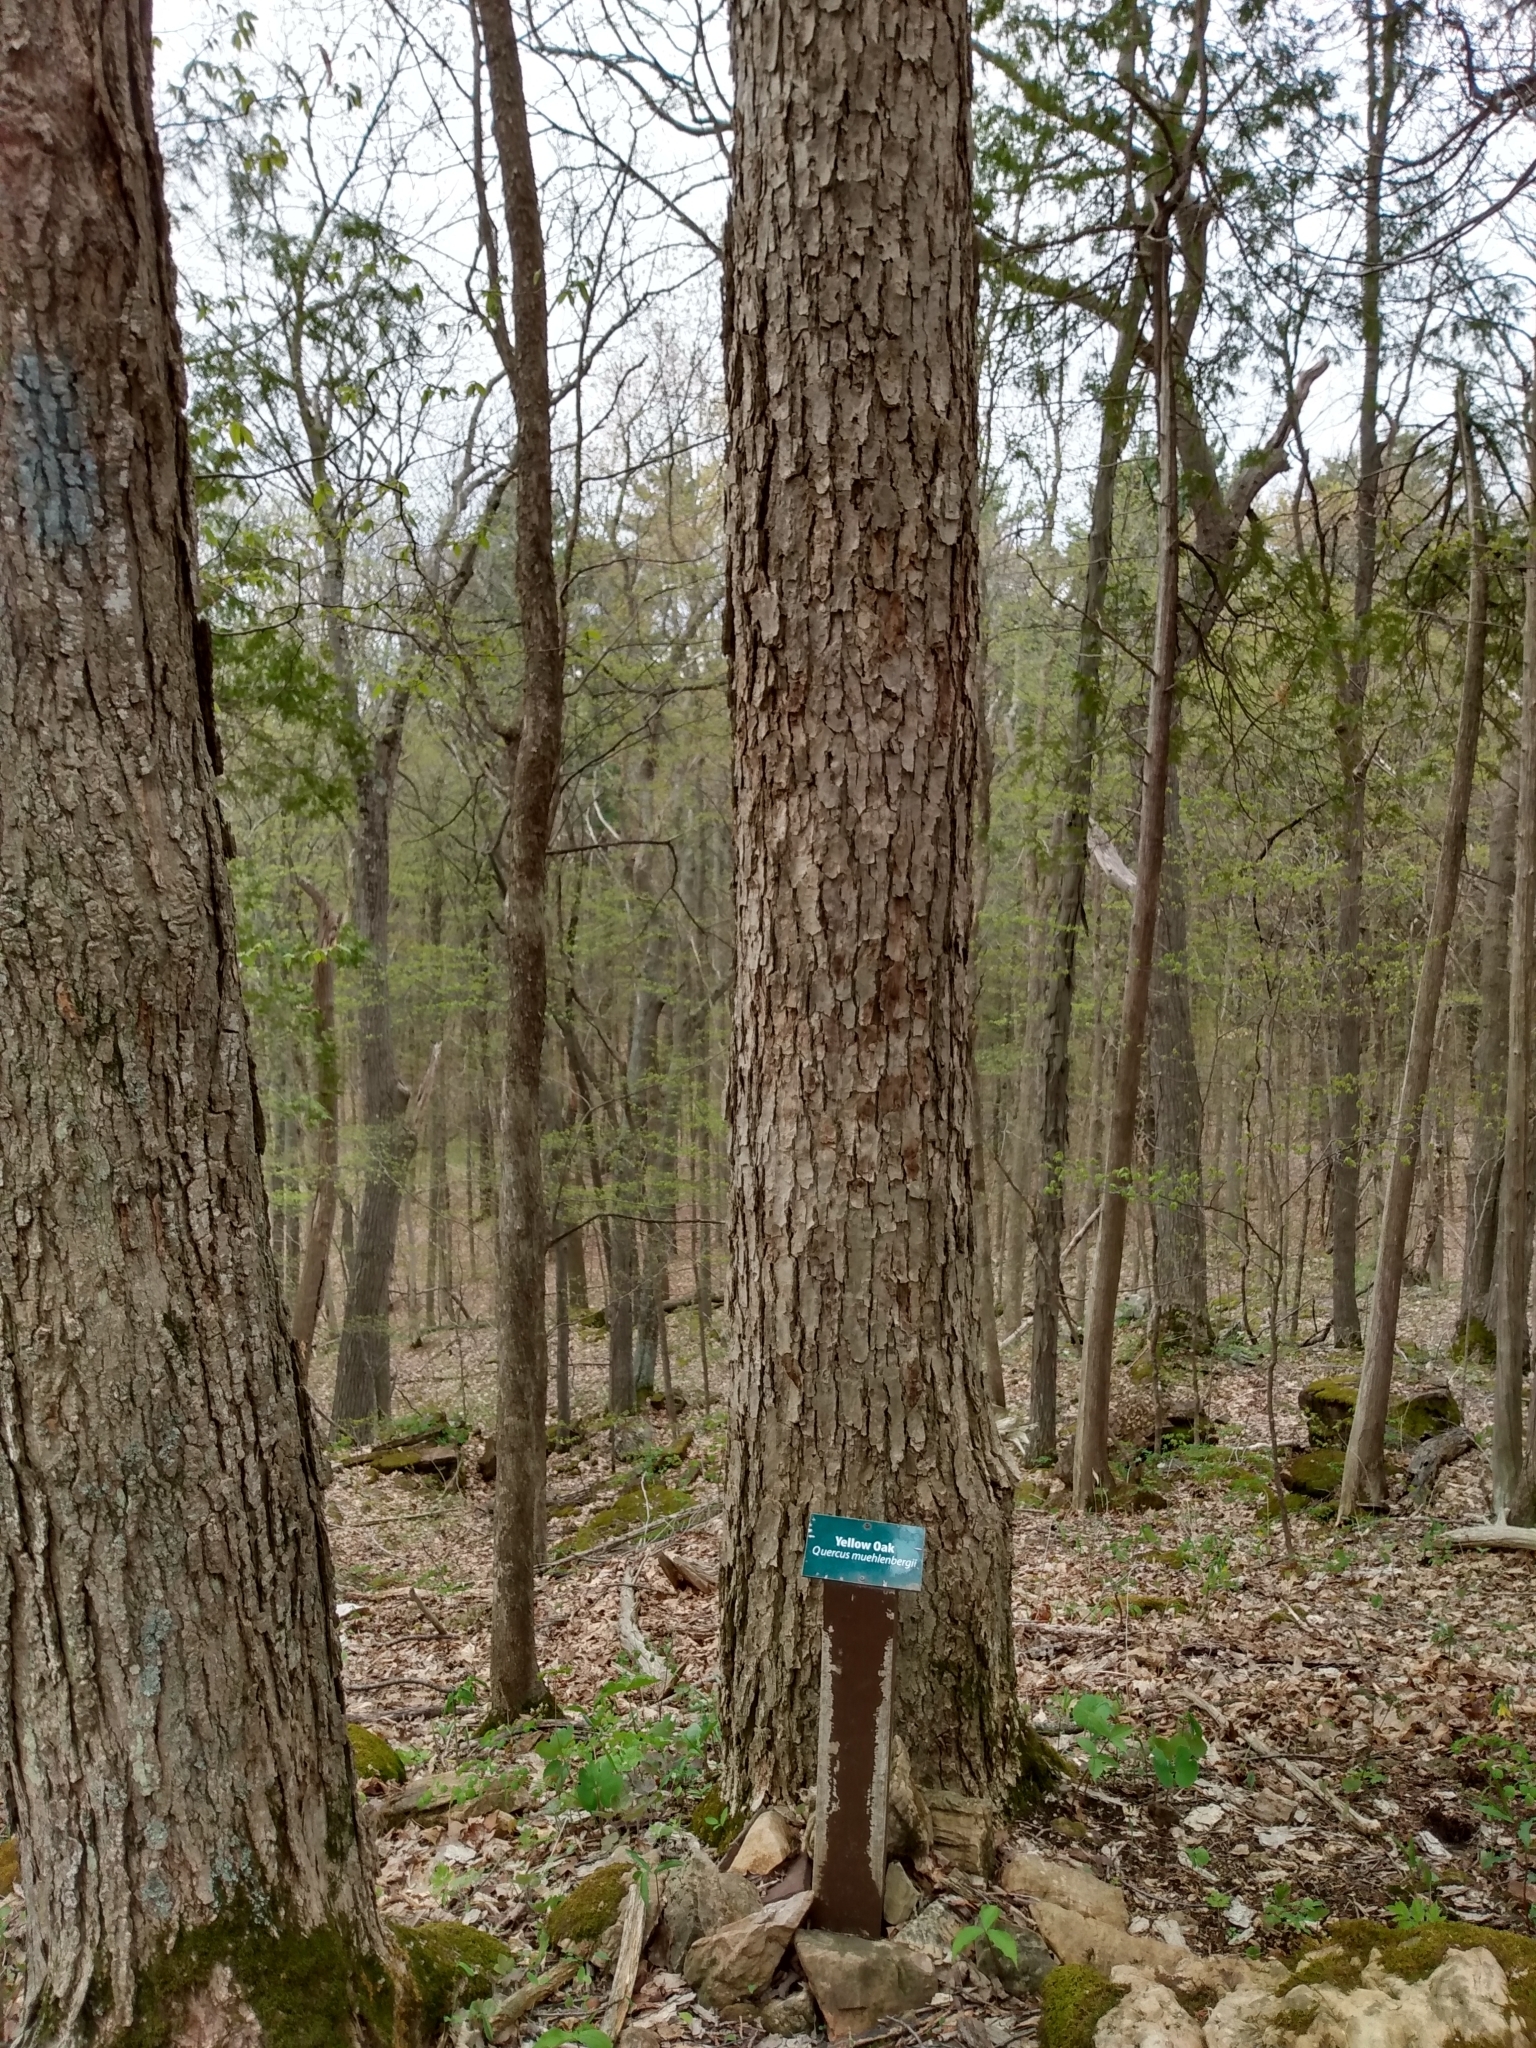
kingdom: Plantae
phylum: Tracheophyta
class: Magnoliopsida
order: Fagales
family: Fagaceae
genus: Quercus
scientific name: Quercus muehlenbergii
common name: Chinkapin oak
